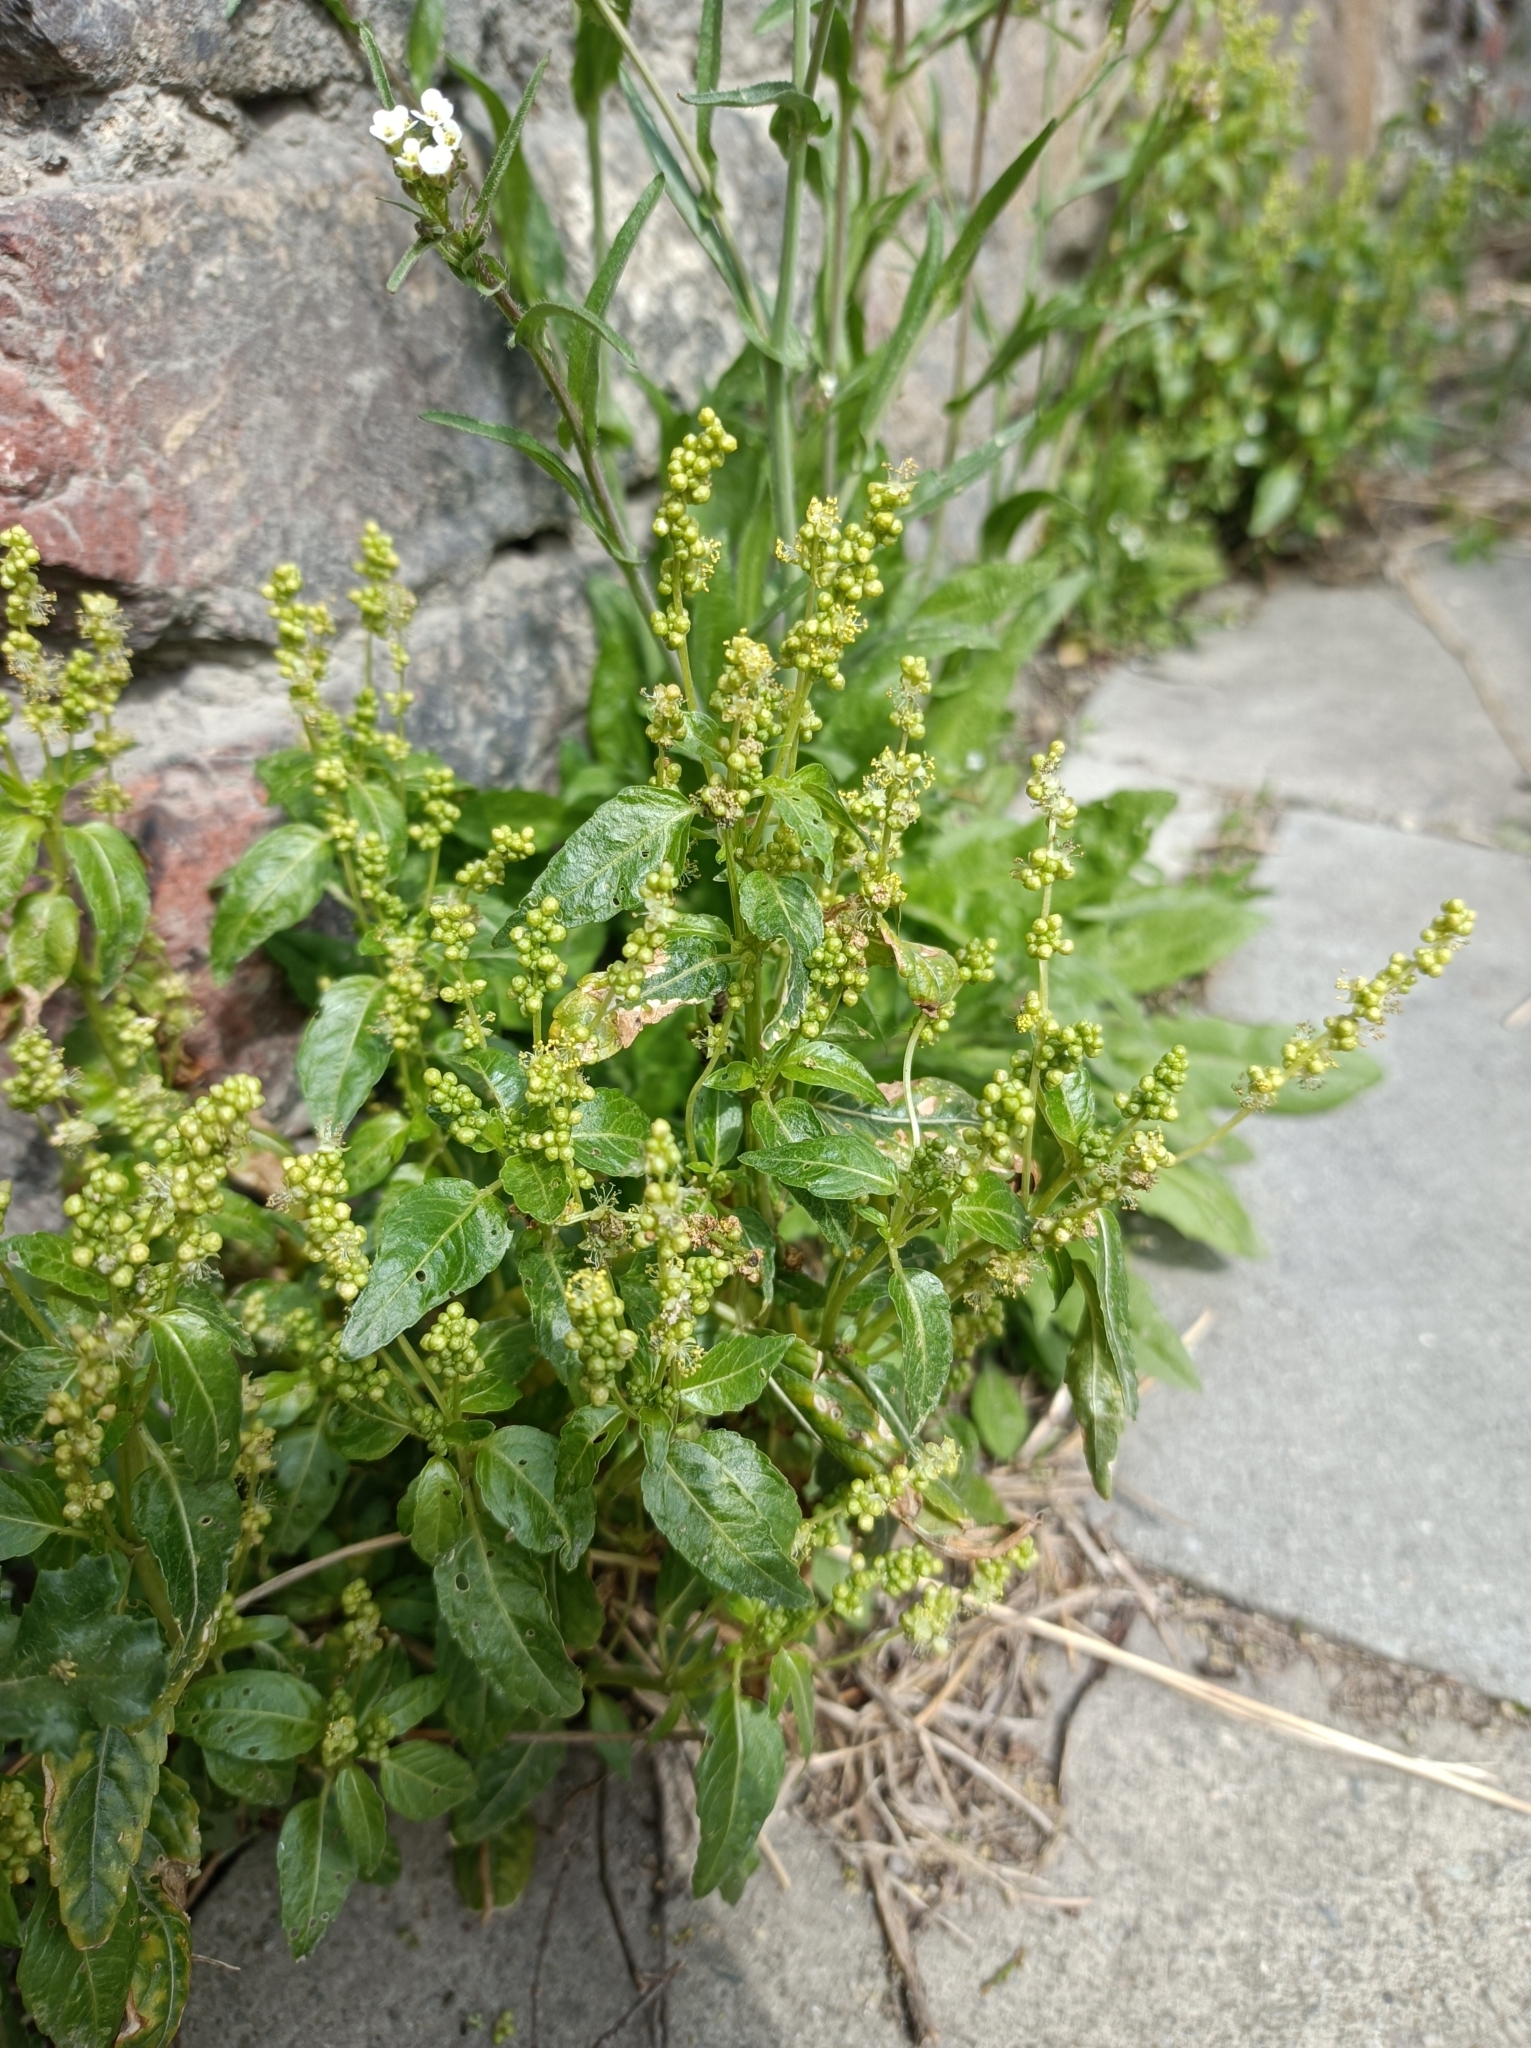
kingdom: Plantae
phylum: Tracheophyta
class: Magnoliopsida
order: Malpighiales
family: Euphorbiaceae
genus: Mercurialis
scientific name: Mercurialis annua
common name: Annual mercury
